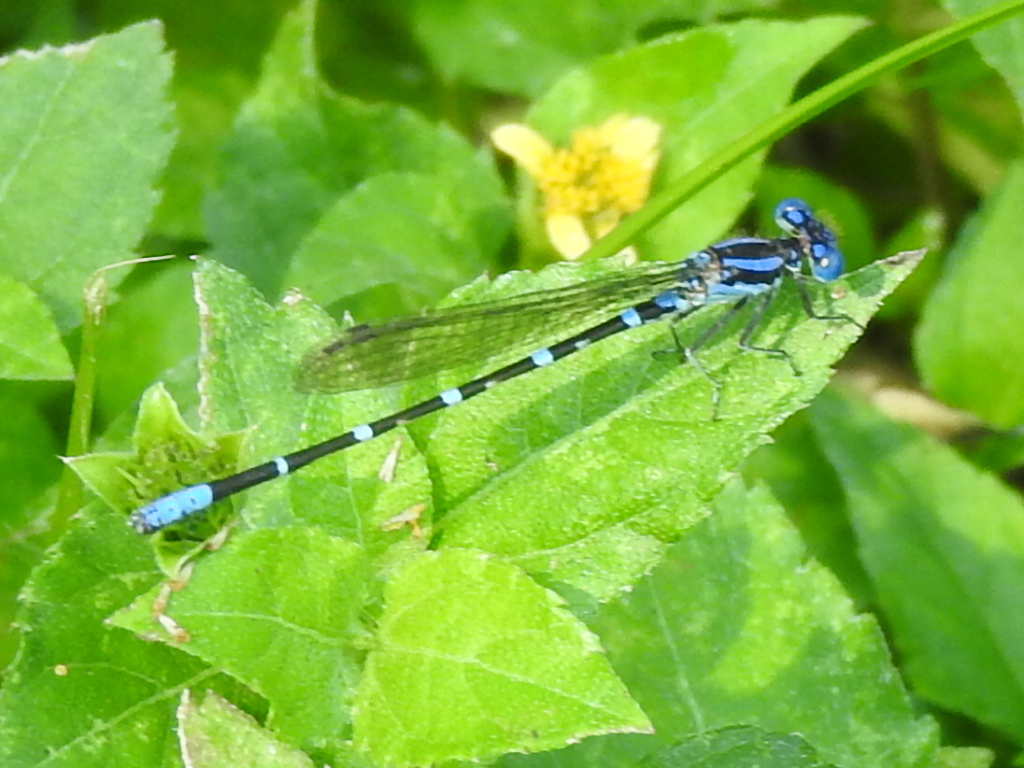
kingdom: Animalia
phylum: Arthropoda
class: Insecta
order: Odonata
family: Coenagrionidae
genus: Argia
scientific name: Argia sedula
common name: Blue-ringed dancer
